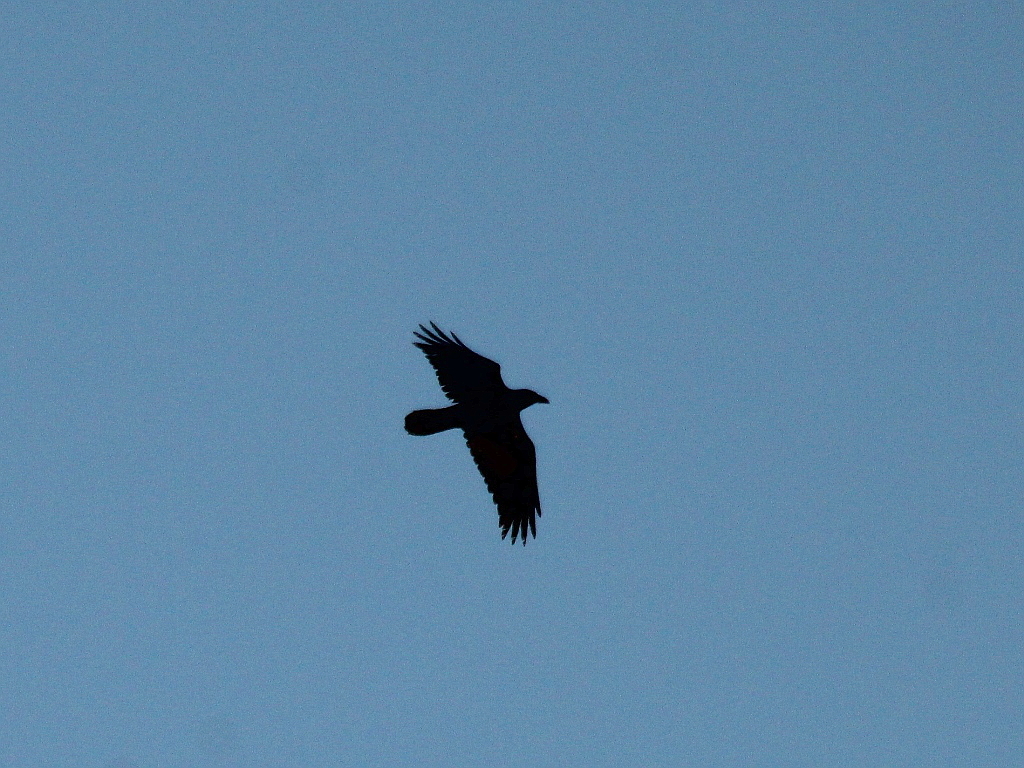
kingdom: Animalia
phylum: Chordata
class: Aves
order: Passeriformes
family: Corvidae
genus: Corvus
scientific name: Corvus corax
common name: Common raven
